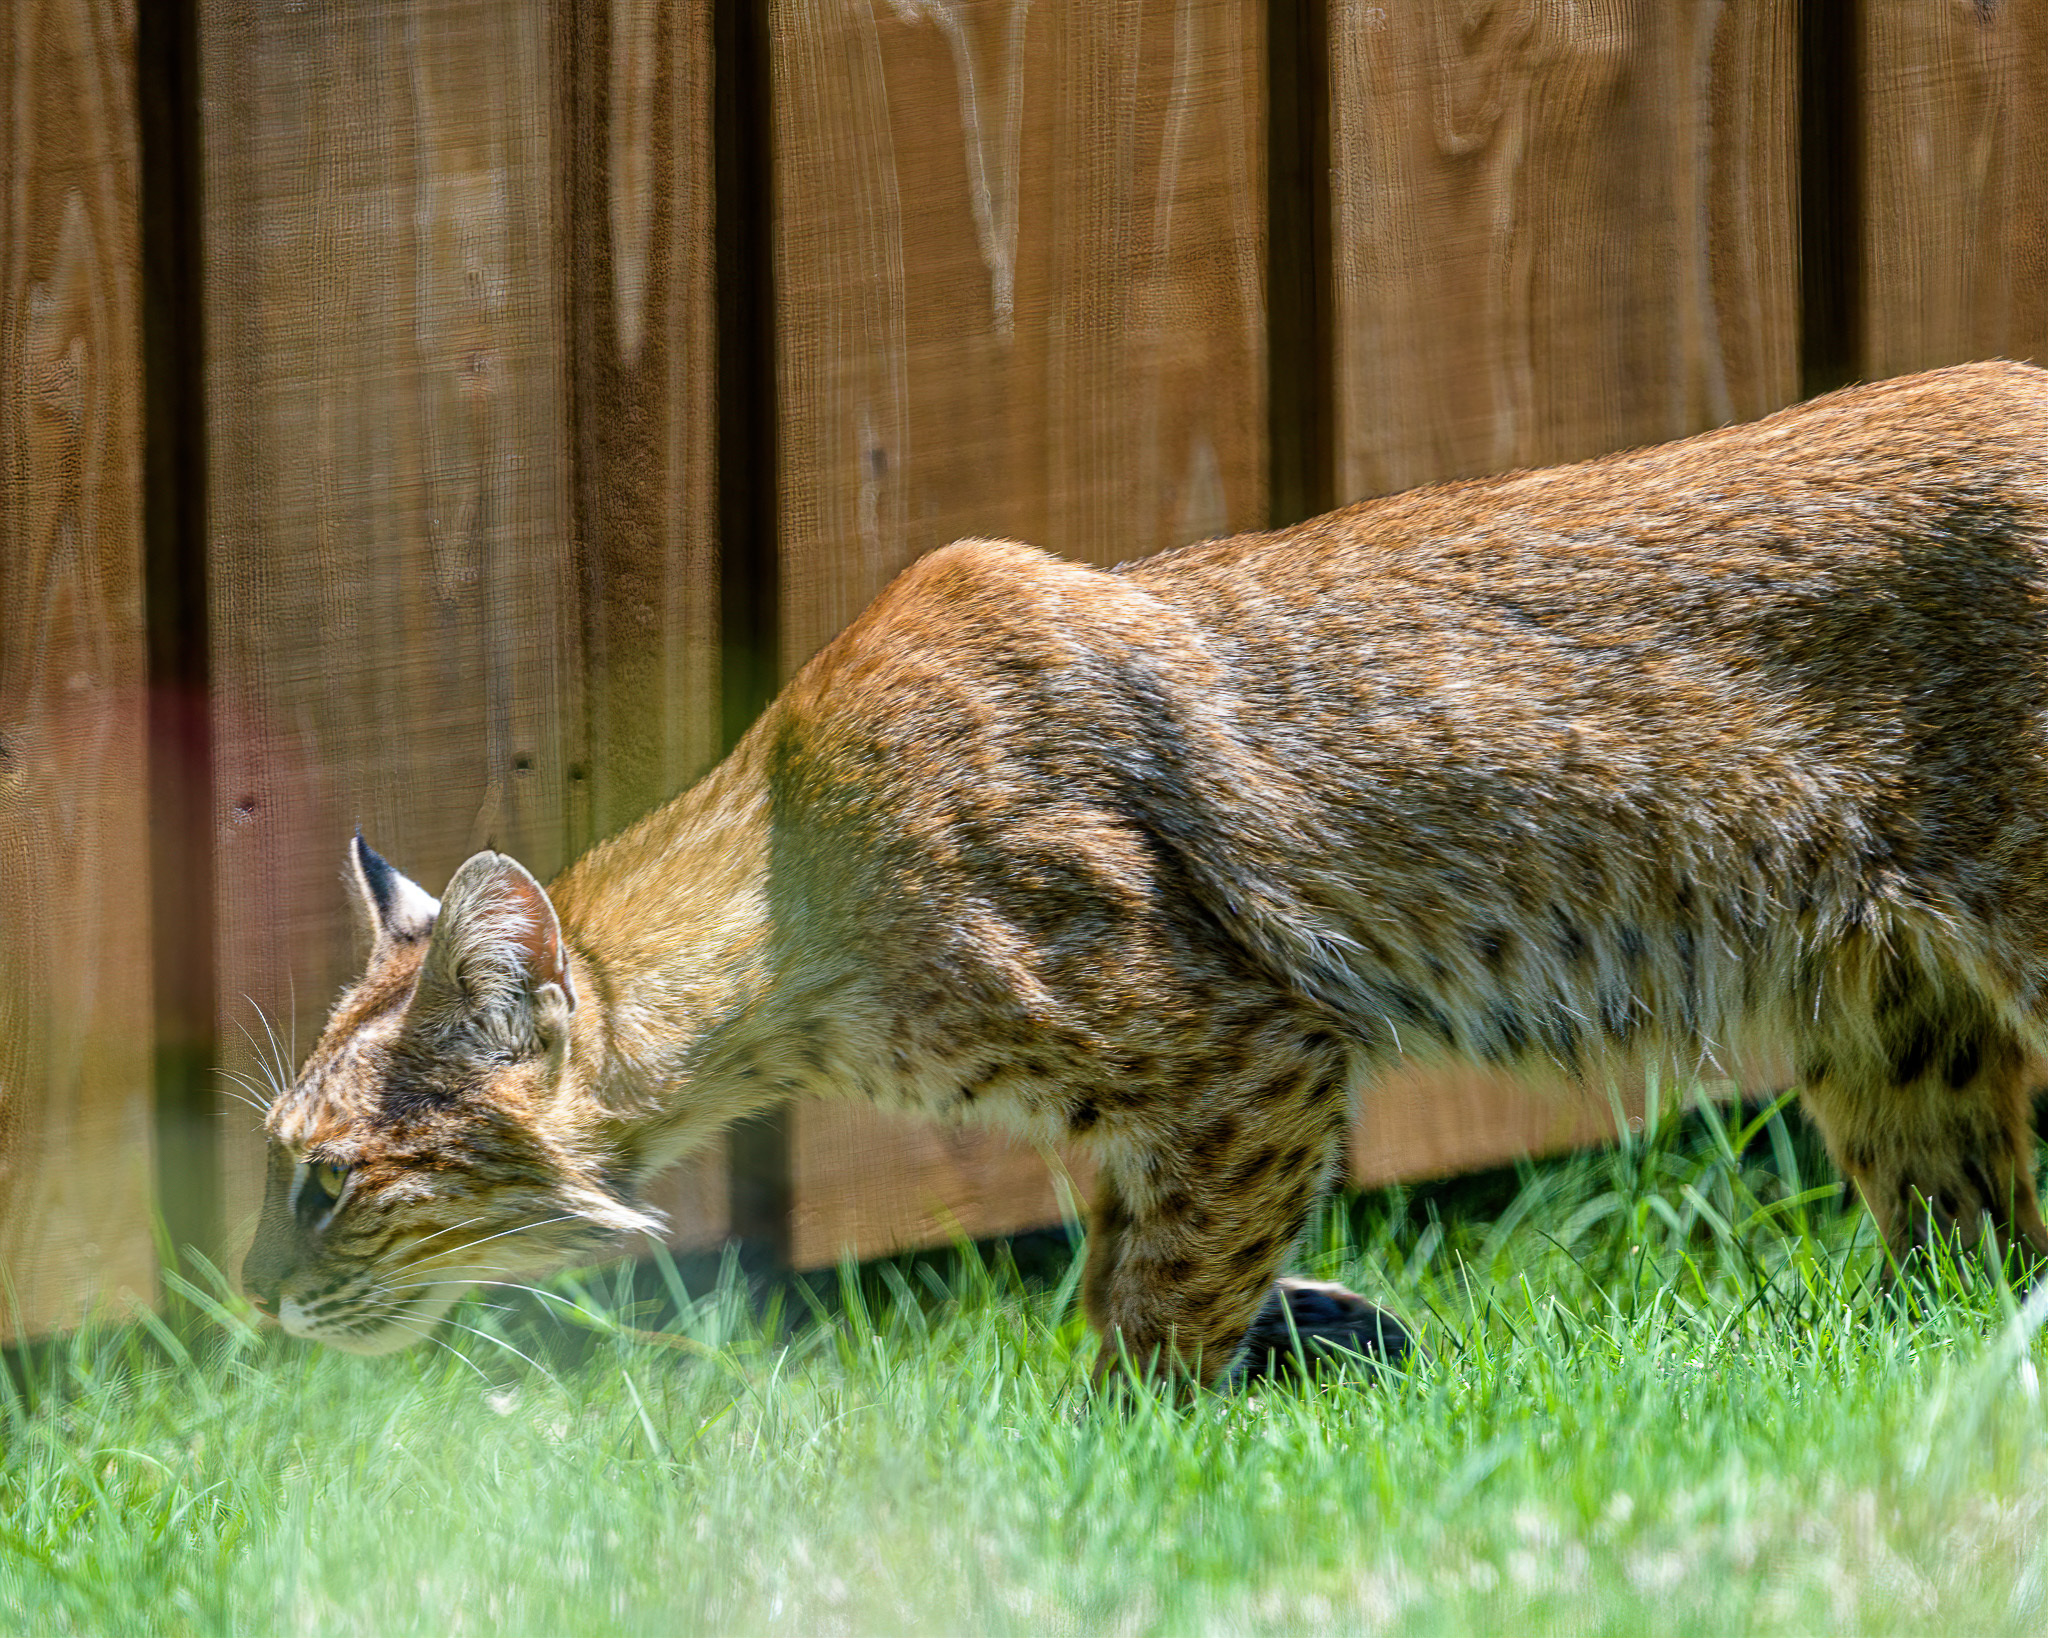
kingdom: Animalia
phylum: Chordata
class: Mammalia
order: Carnivora
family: Felidae
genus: Lynx
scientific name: Lynx rufus
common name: Bobcat
